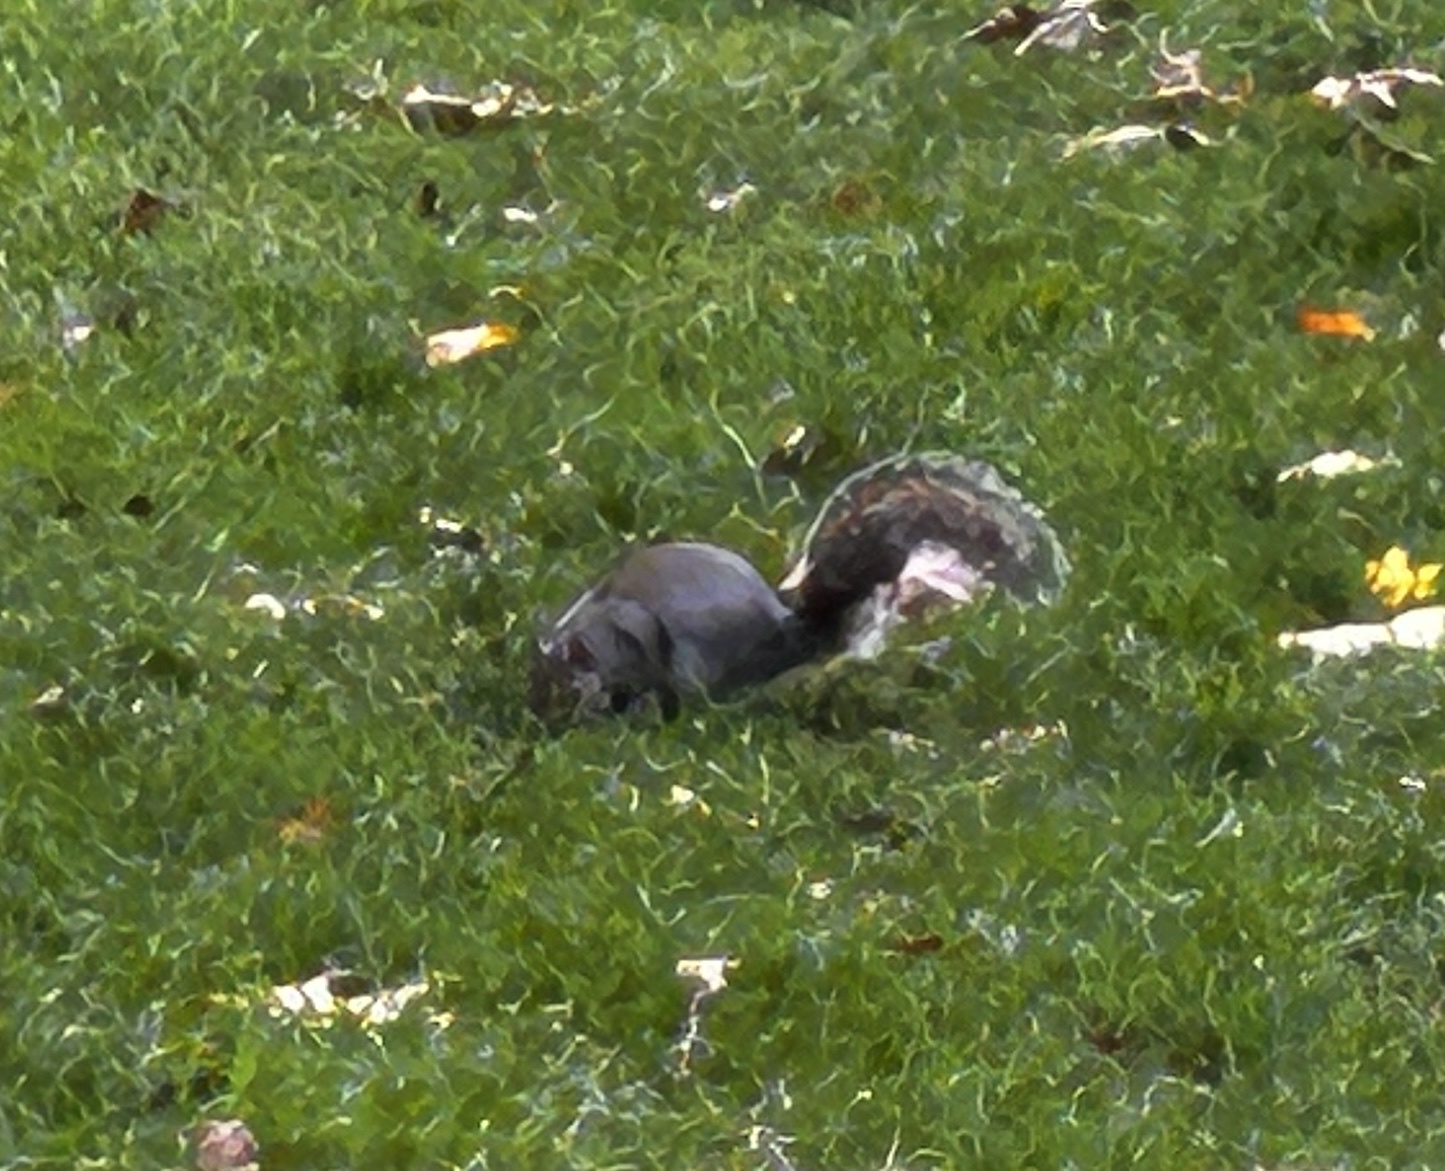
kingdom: Animalia
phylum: Chordata
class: Mammalia
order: Rodentia
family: Sciuridae
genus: Sciurus
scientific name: Sciurus carolinensis
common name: Eastern gray squirrel
